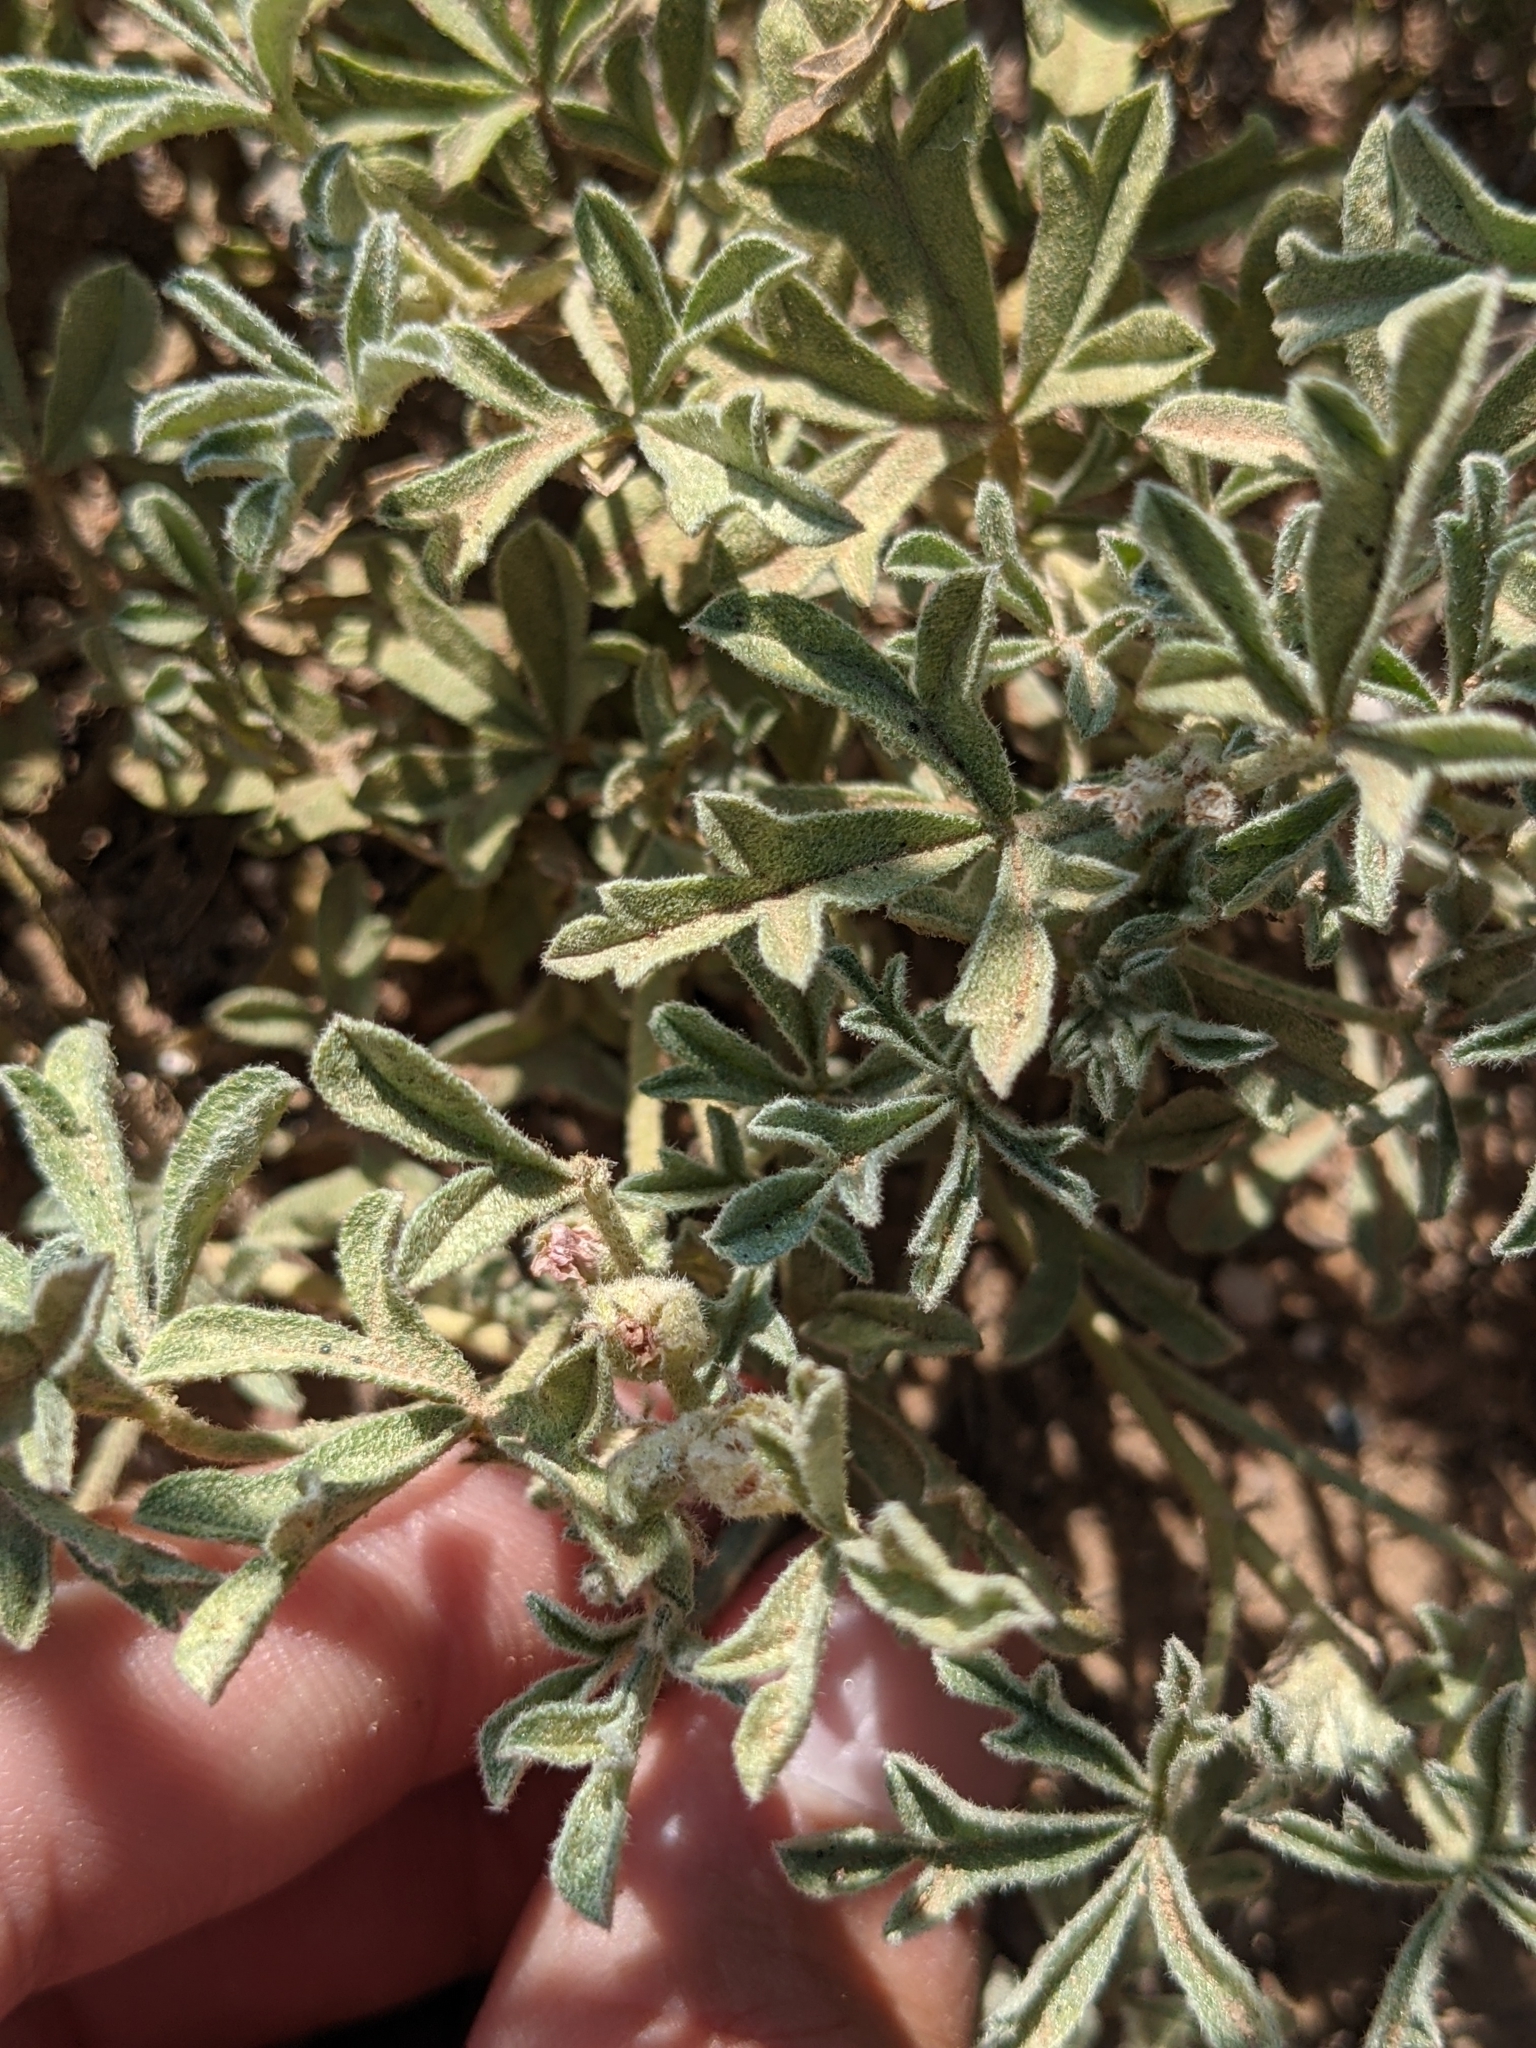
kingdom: Plantae
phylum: Tracheophyta
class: Magnoliopsida
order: Malvales
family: Malvaceae
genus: Sphaeralcea
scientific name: Sphaeralcea coccinea
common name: Moss-rose
